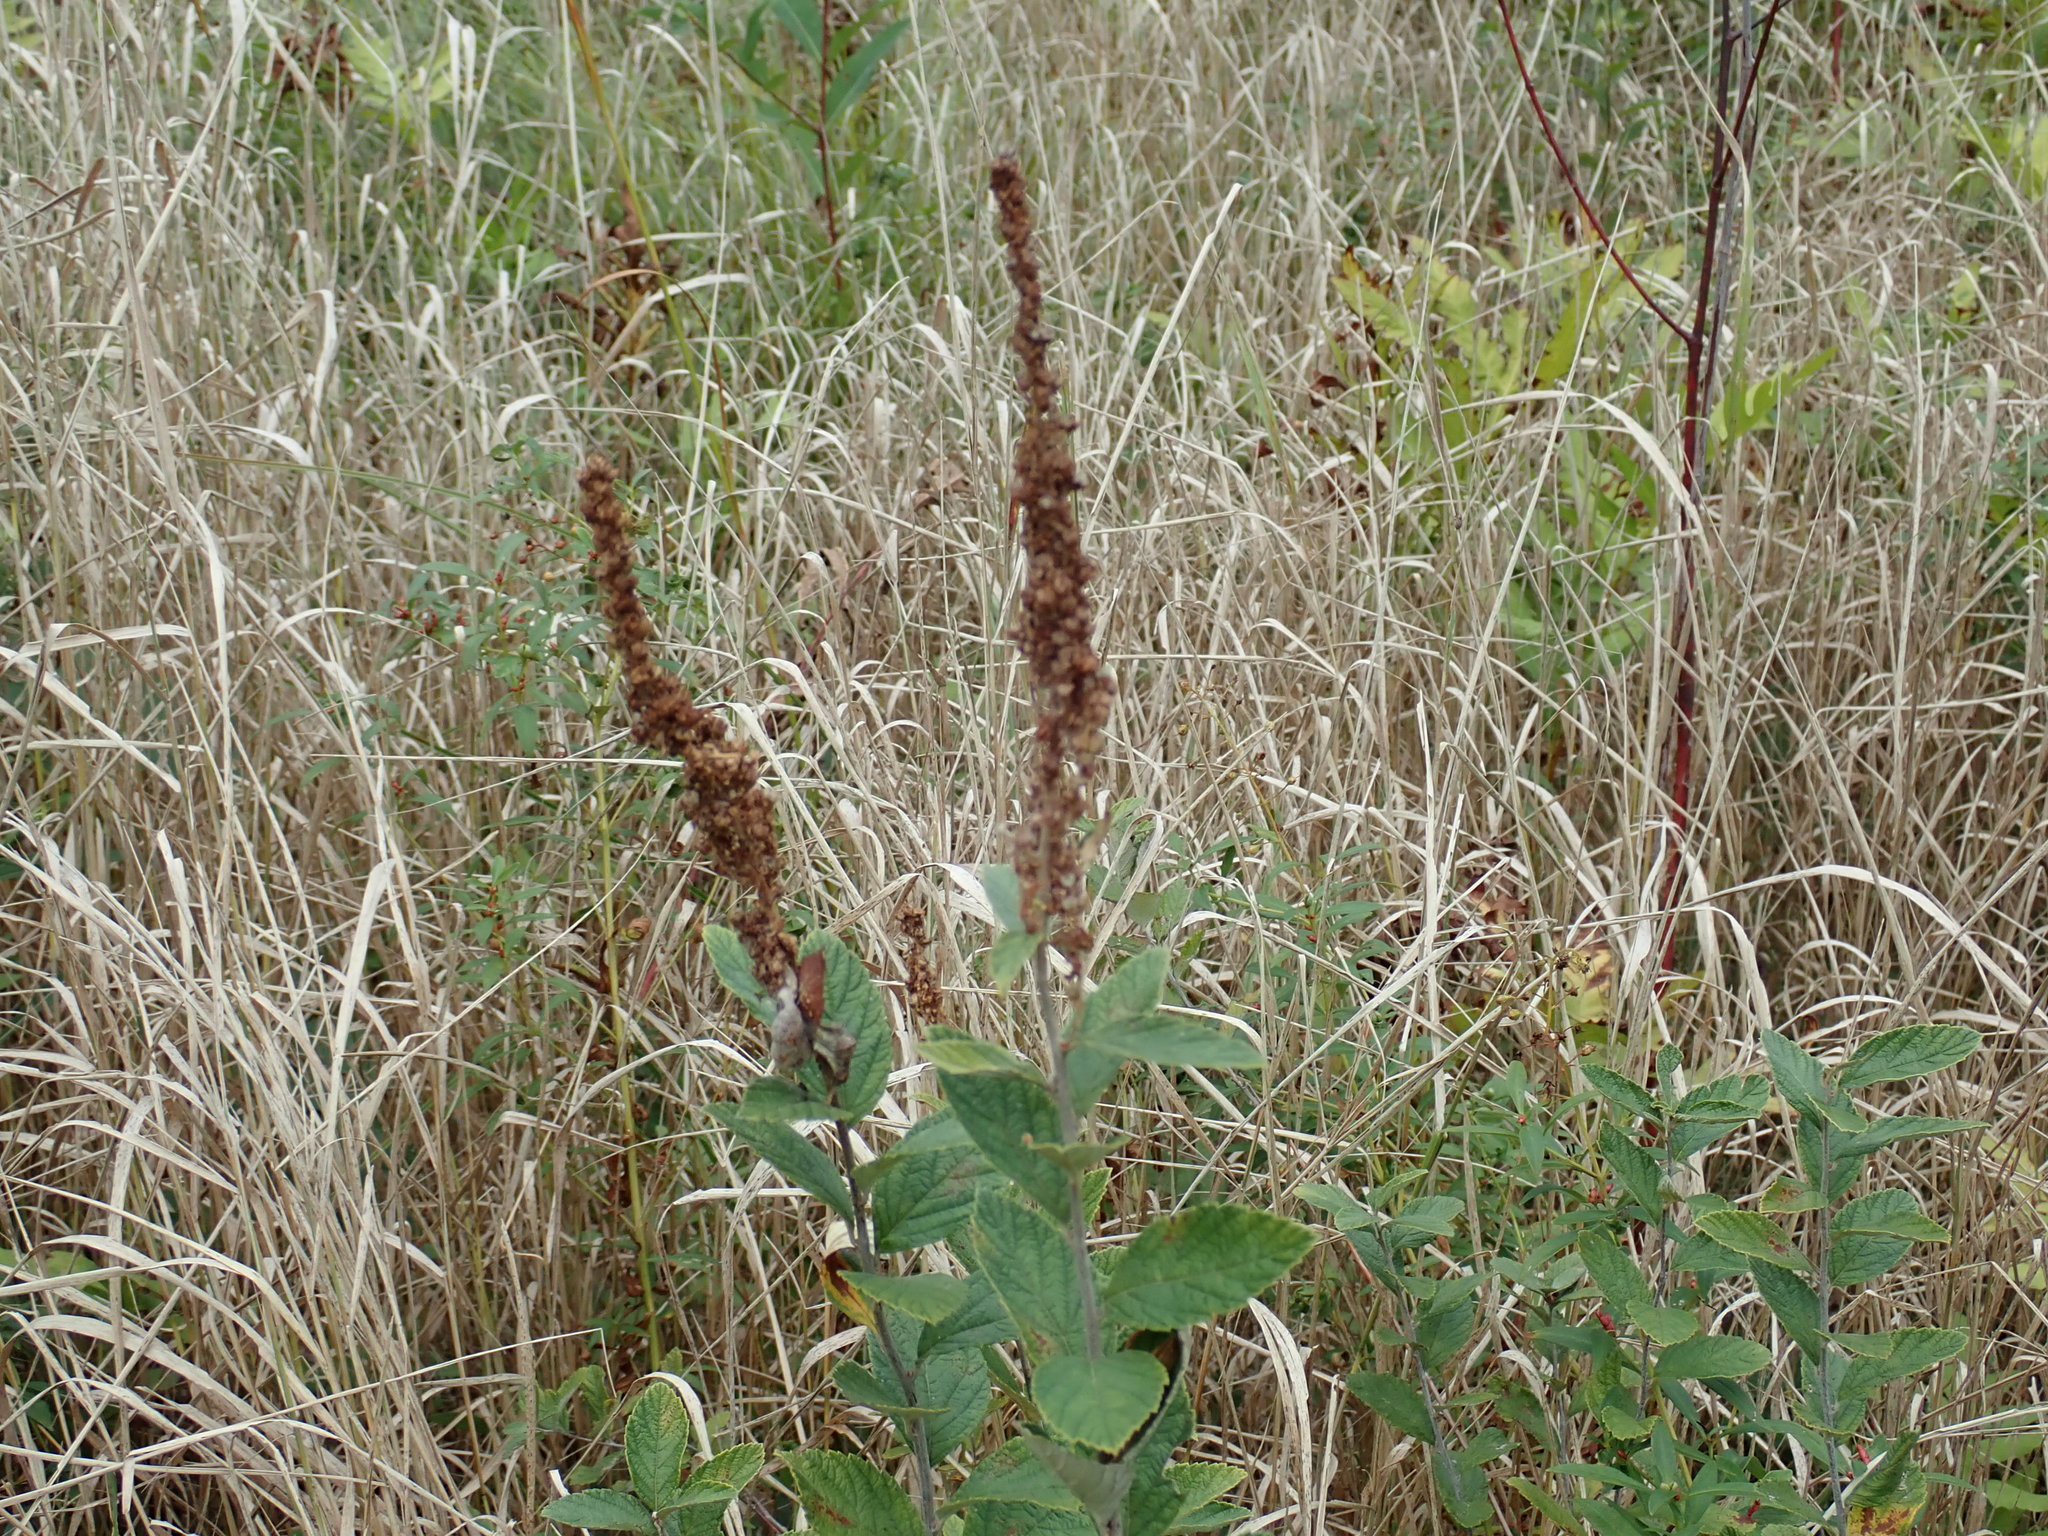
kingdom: Plantae
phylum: Tracheophyta
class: Magnoliopsida
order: Rosales
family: Rosaceae
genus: Spiraea
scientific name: Spiraea tomentosa
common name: Hardhack
